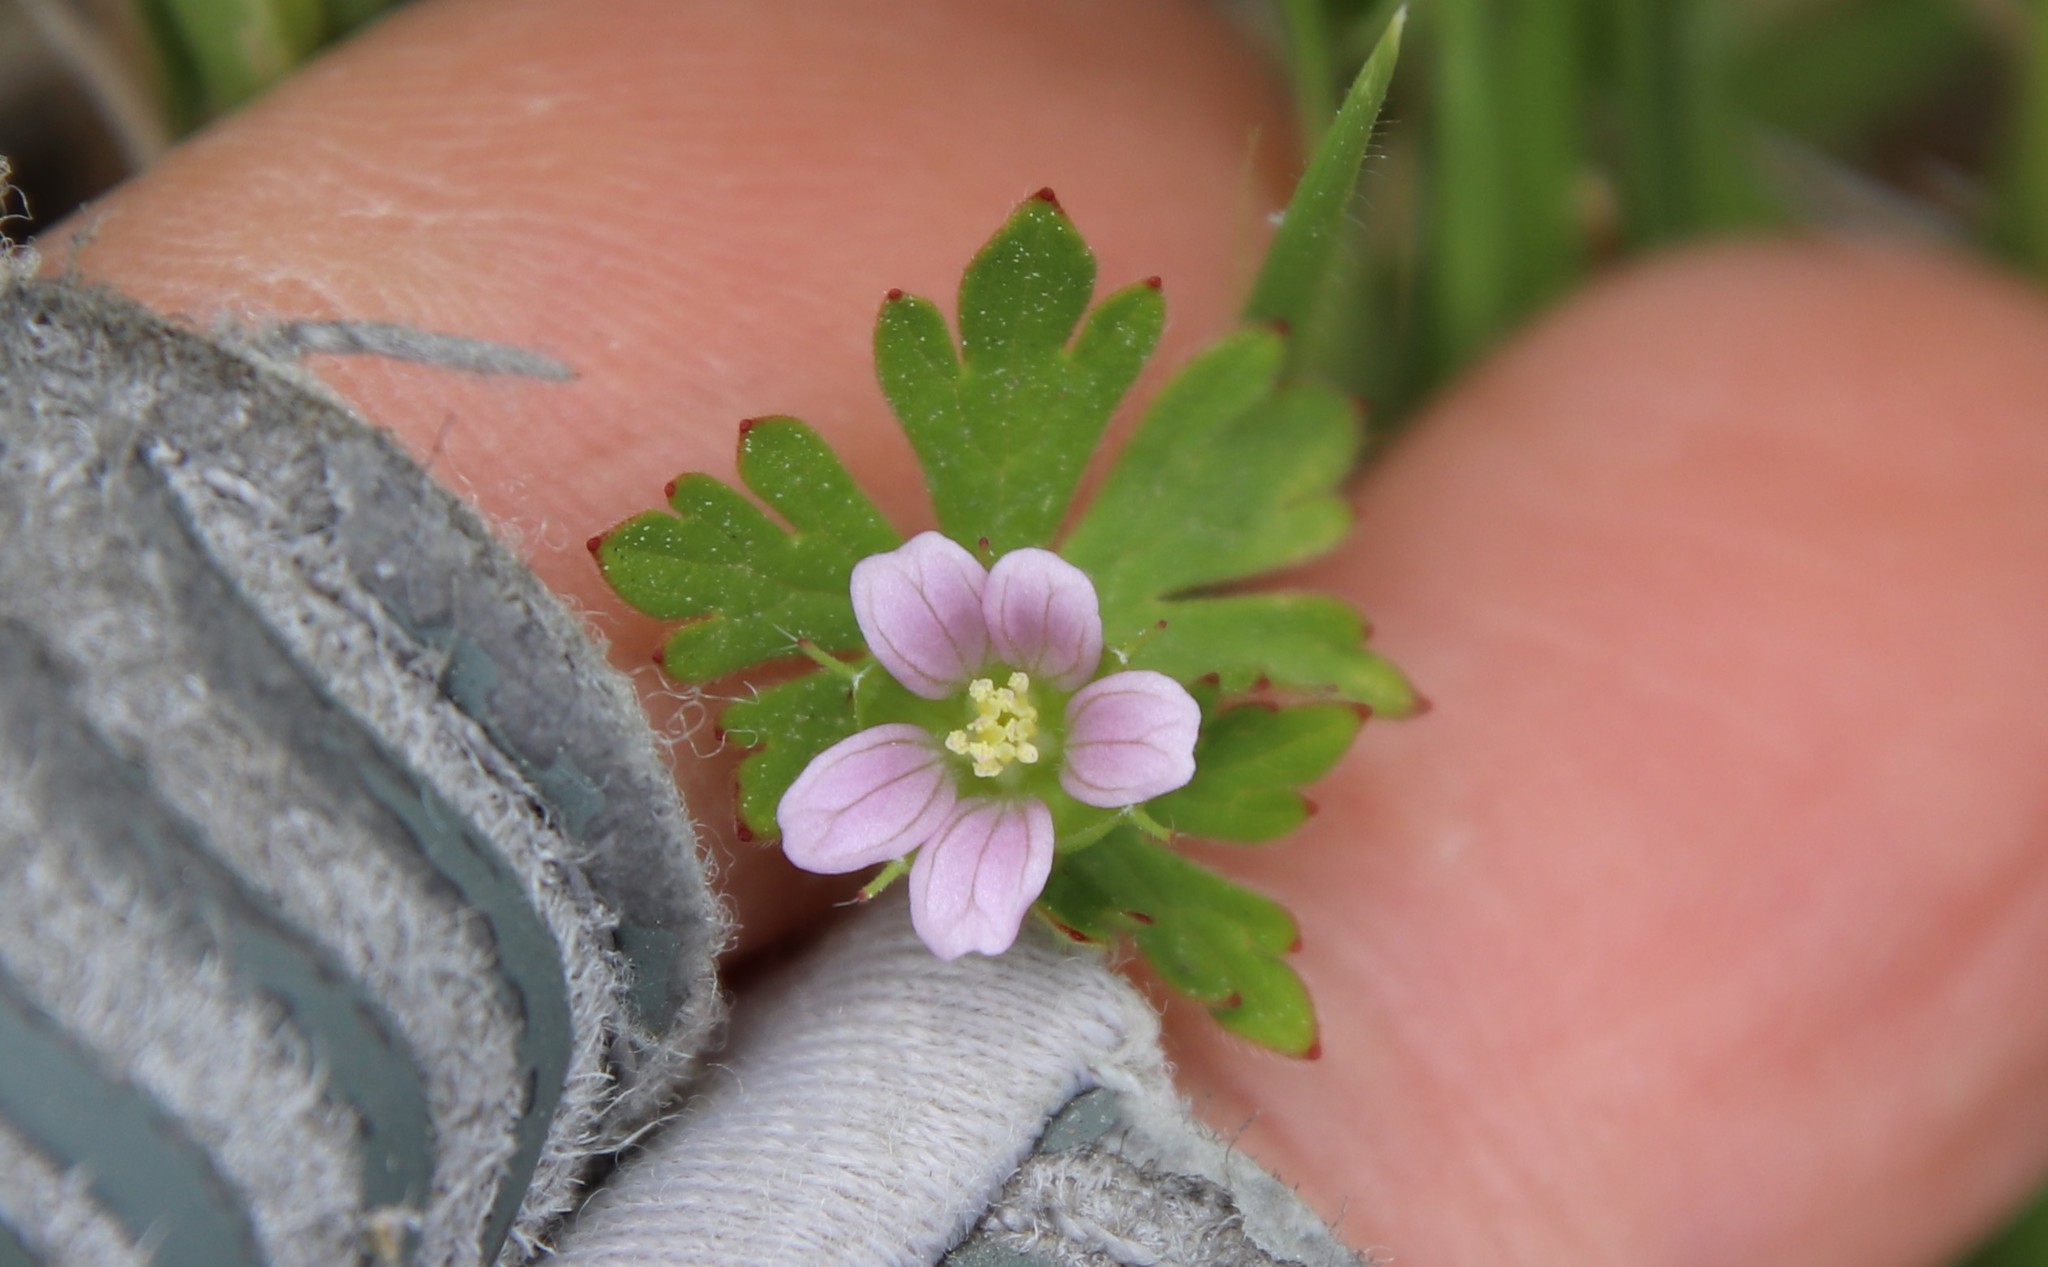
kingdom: Plantae
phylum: Tracheophyta
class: Magnoliopsida
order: Geraniales
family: Geraniaceae
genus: Geranium
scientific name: Geranium carolinianum
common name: Carolina crane's-bill
